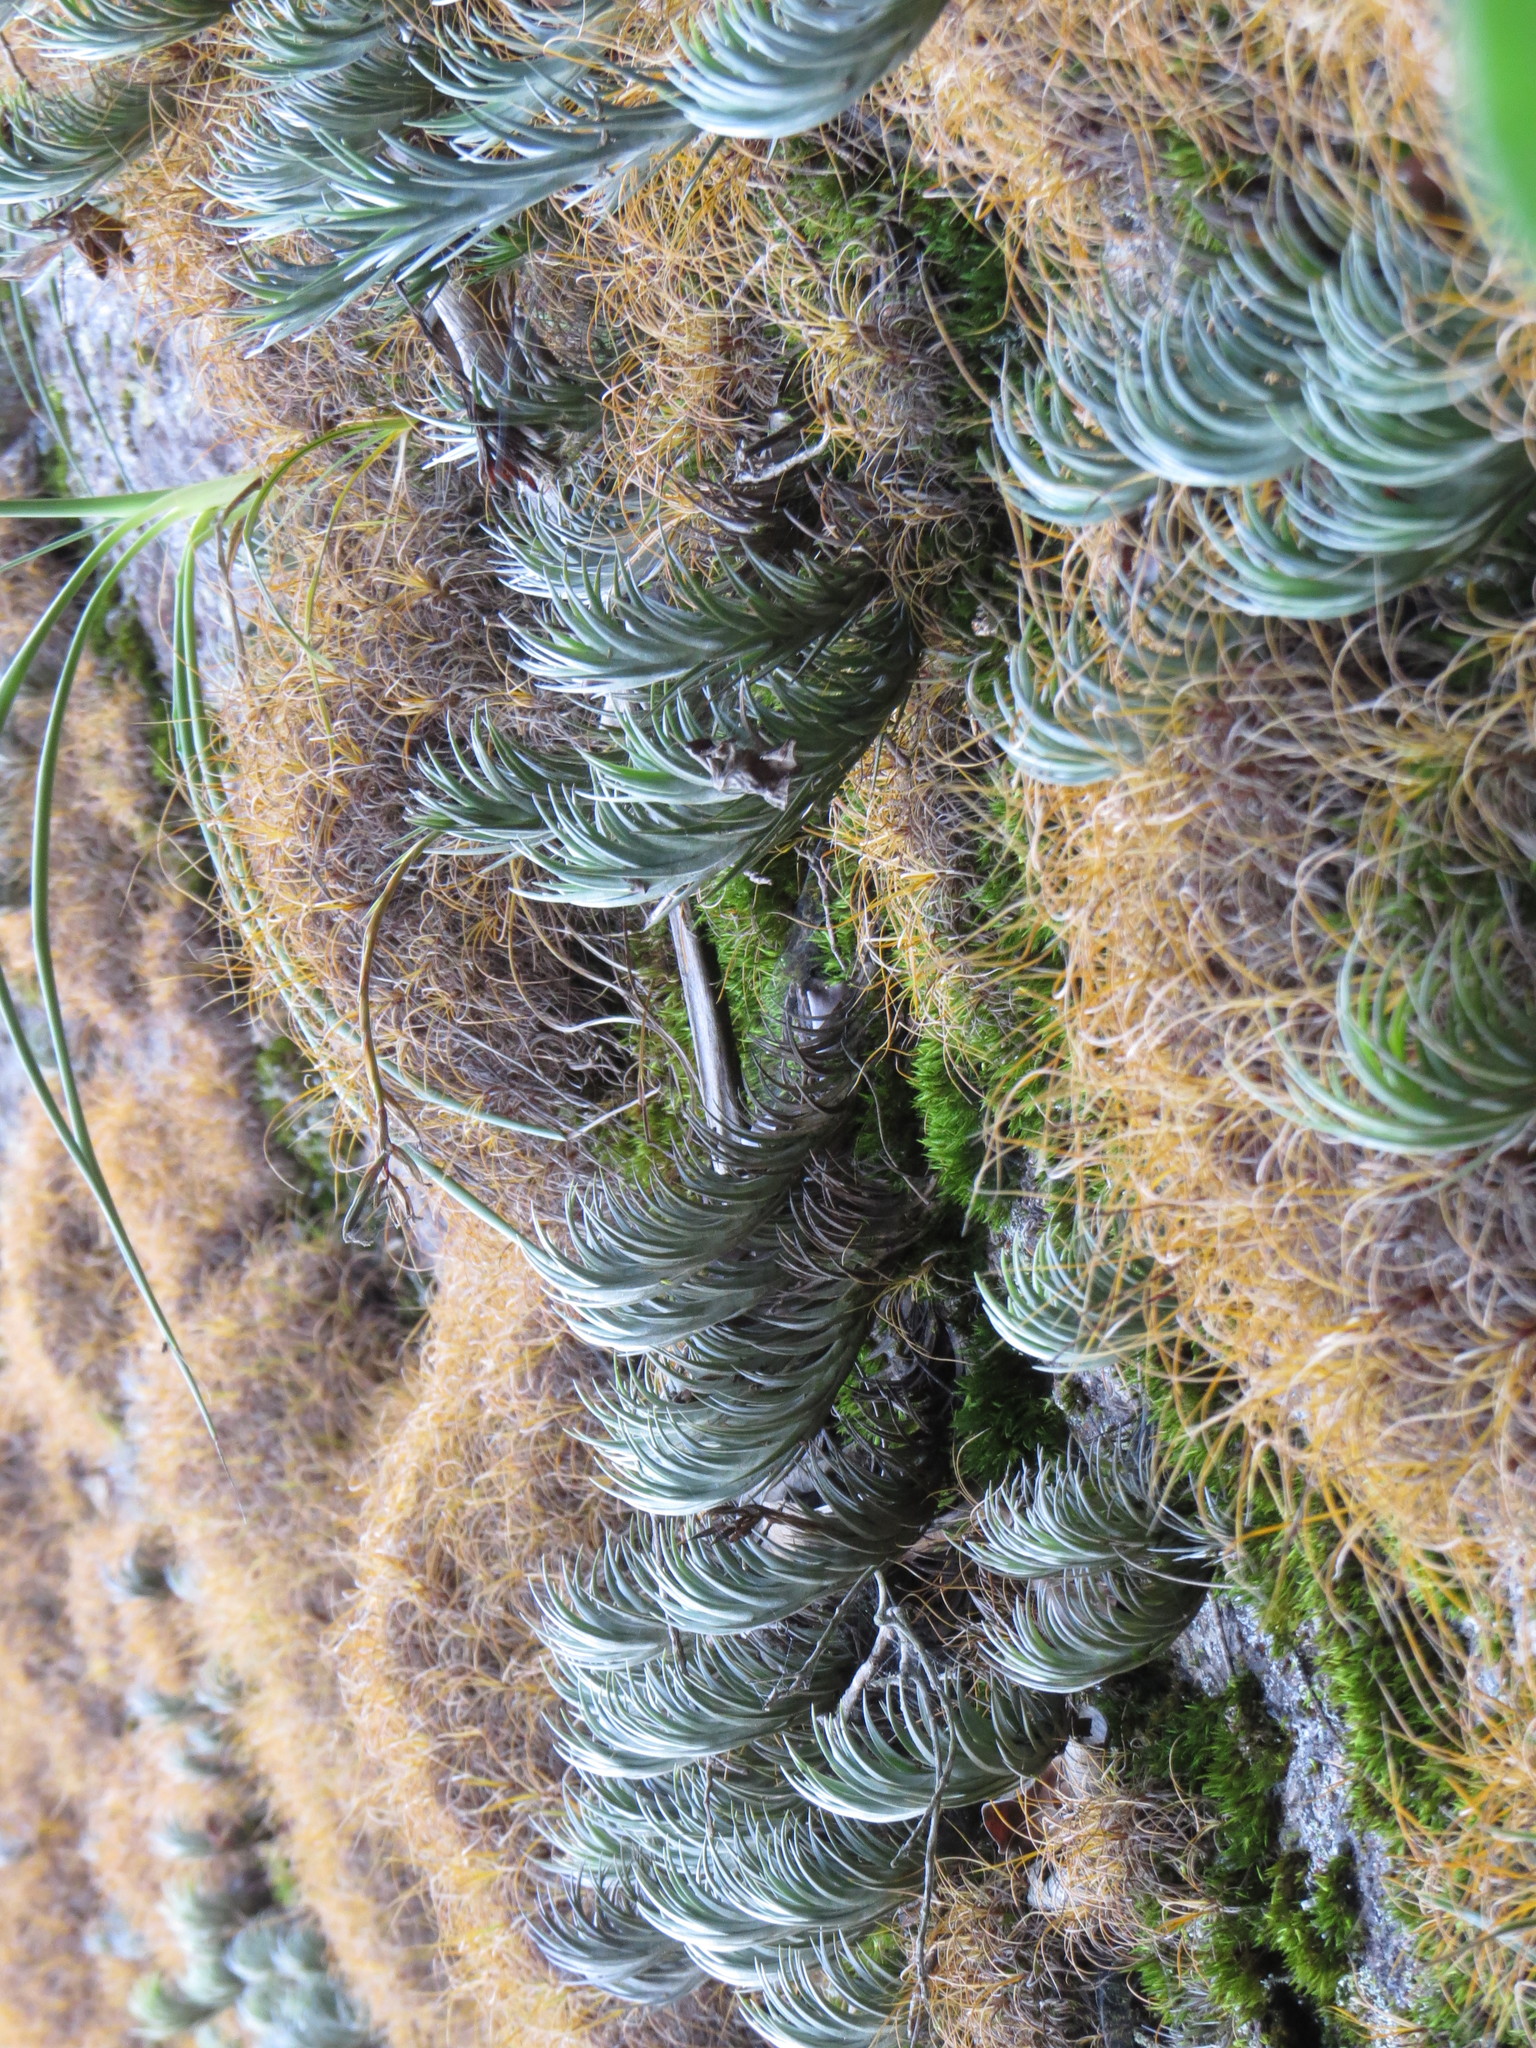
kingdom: Plantae
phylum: Tracheophyta
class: Liliopsida
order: Poales
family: Bromeliaceae
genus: Tillandsia
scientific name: Tillandsia araujei
